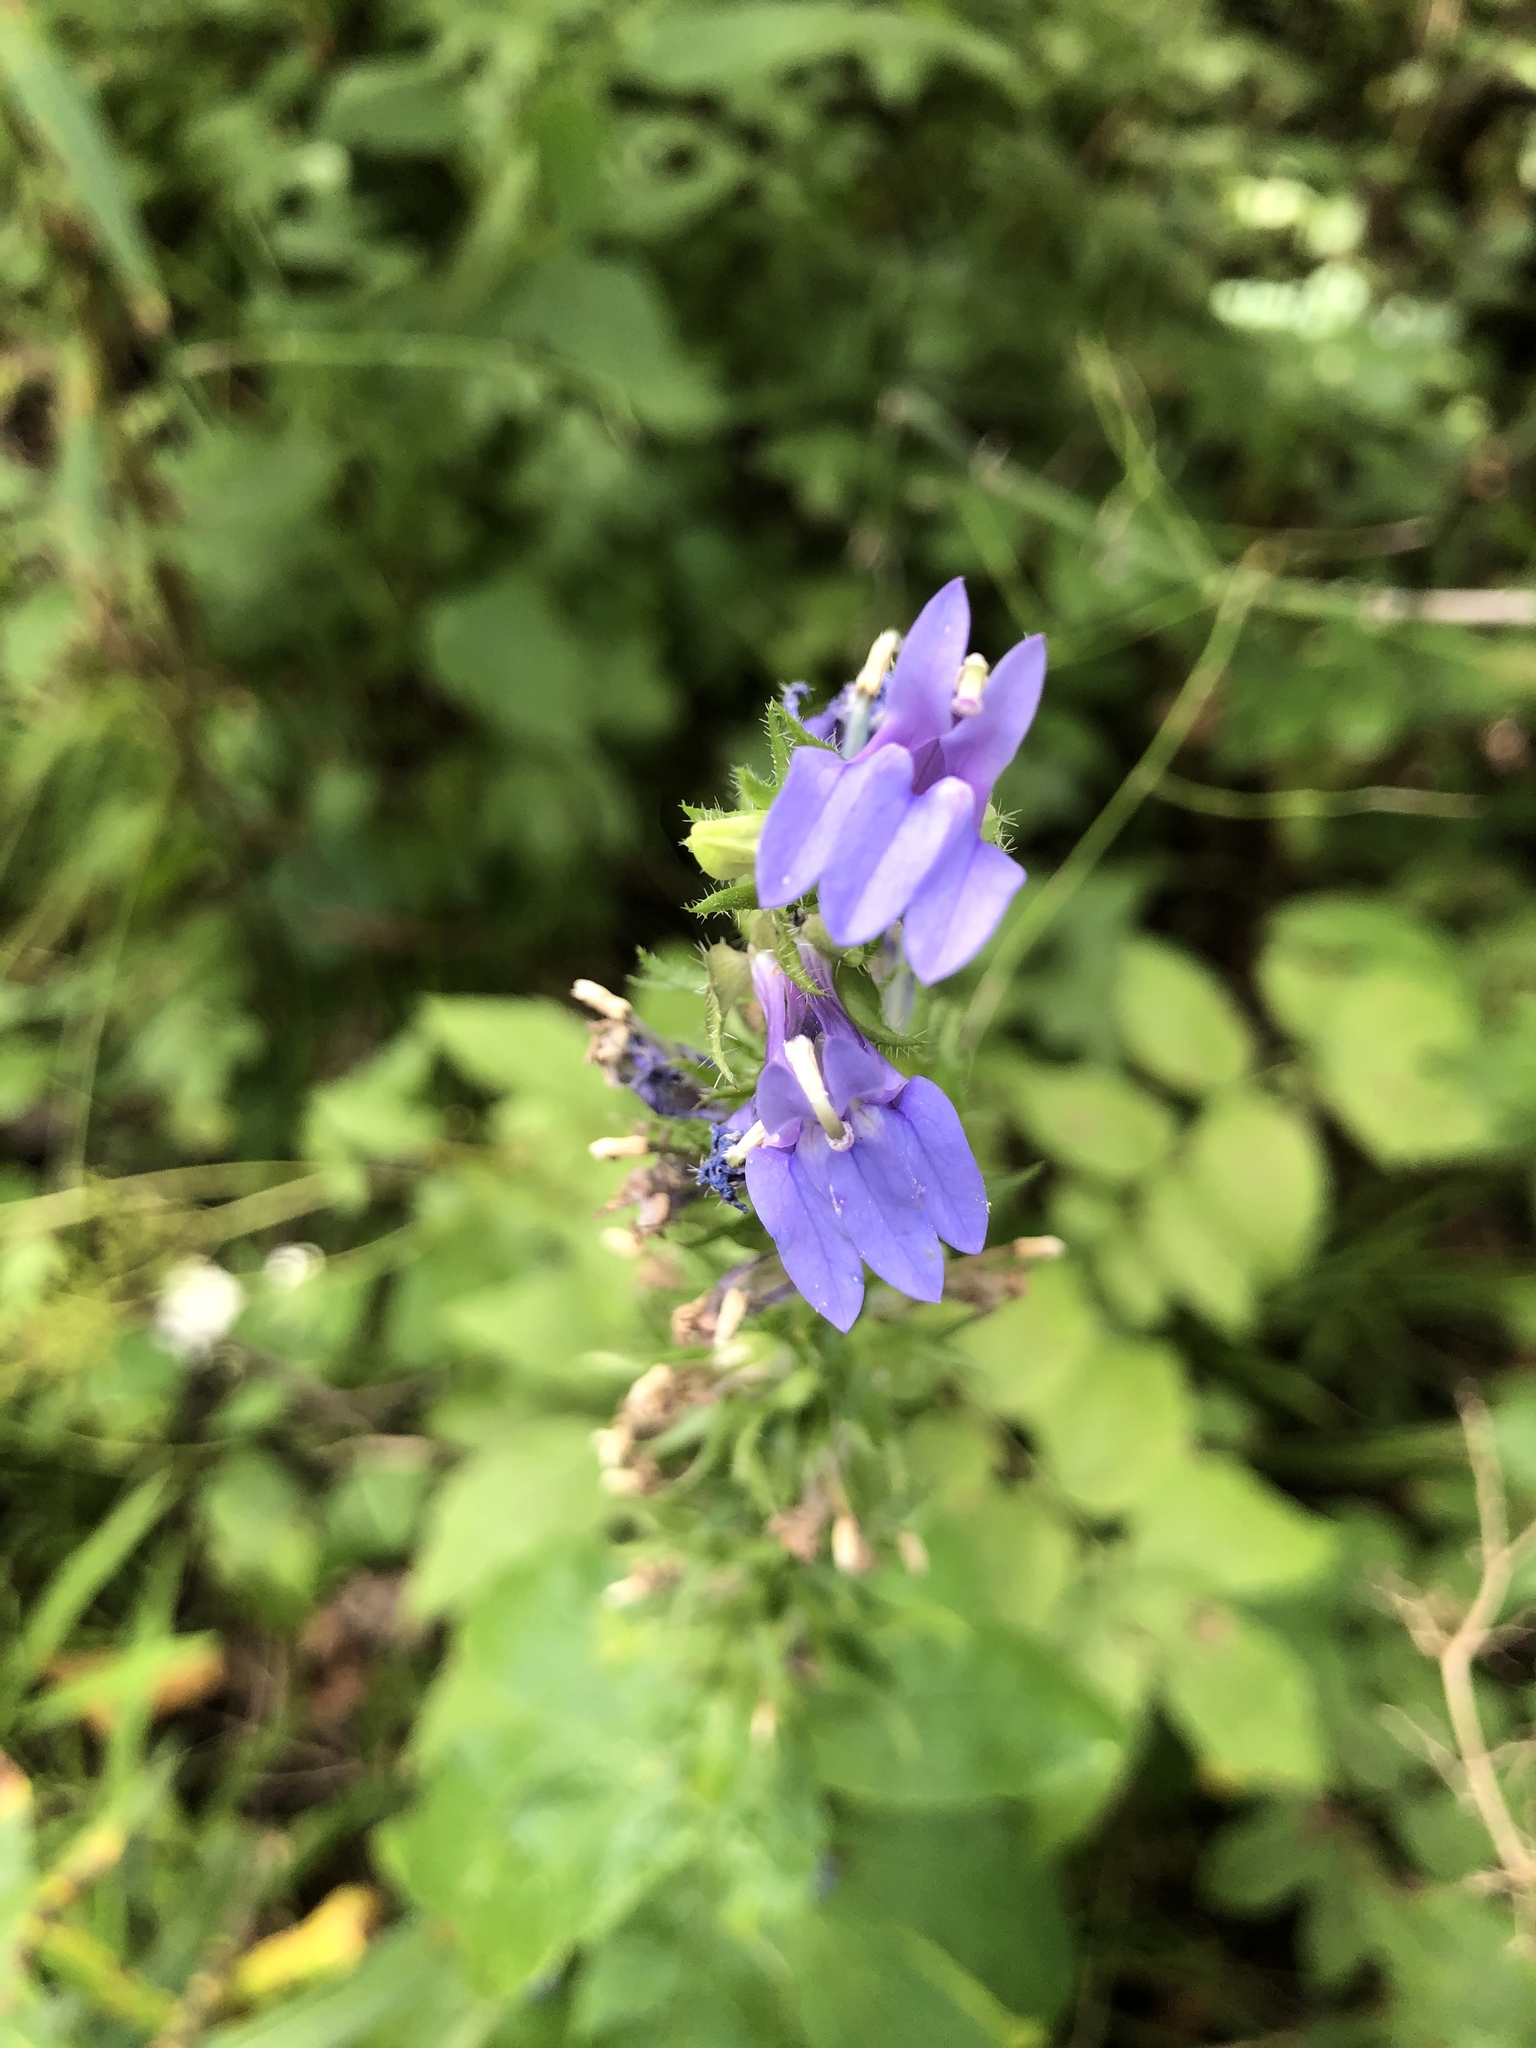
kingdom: Plantae
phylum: Tracheophyta
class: Magnoliopsida
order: Asterales
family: Campanulaceae
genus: Lobelia
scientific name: Lobelia siphilitica
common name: Great lobelia
